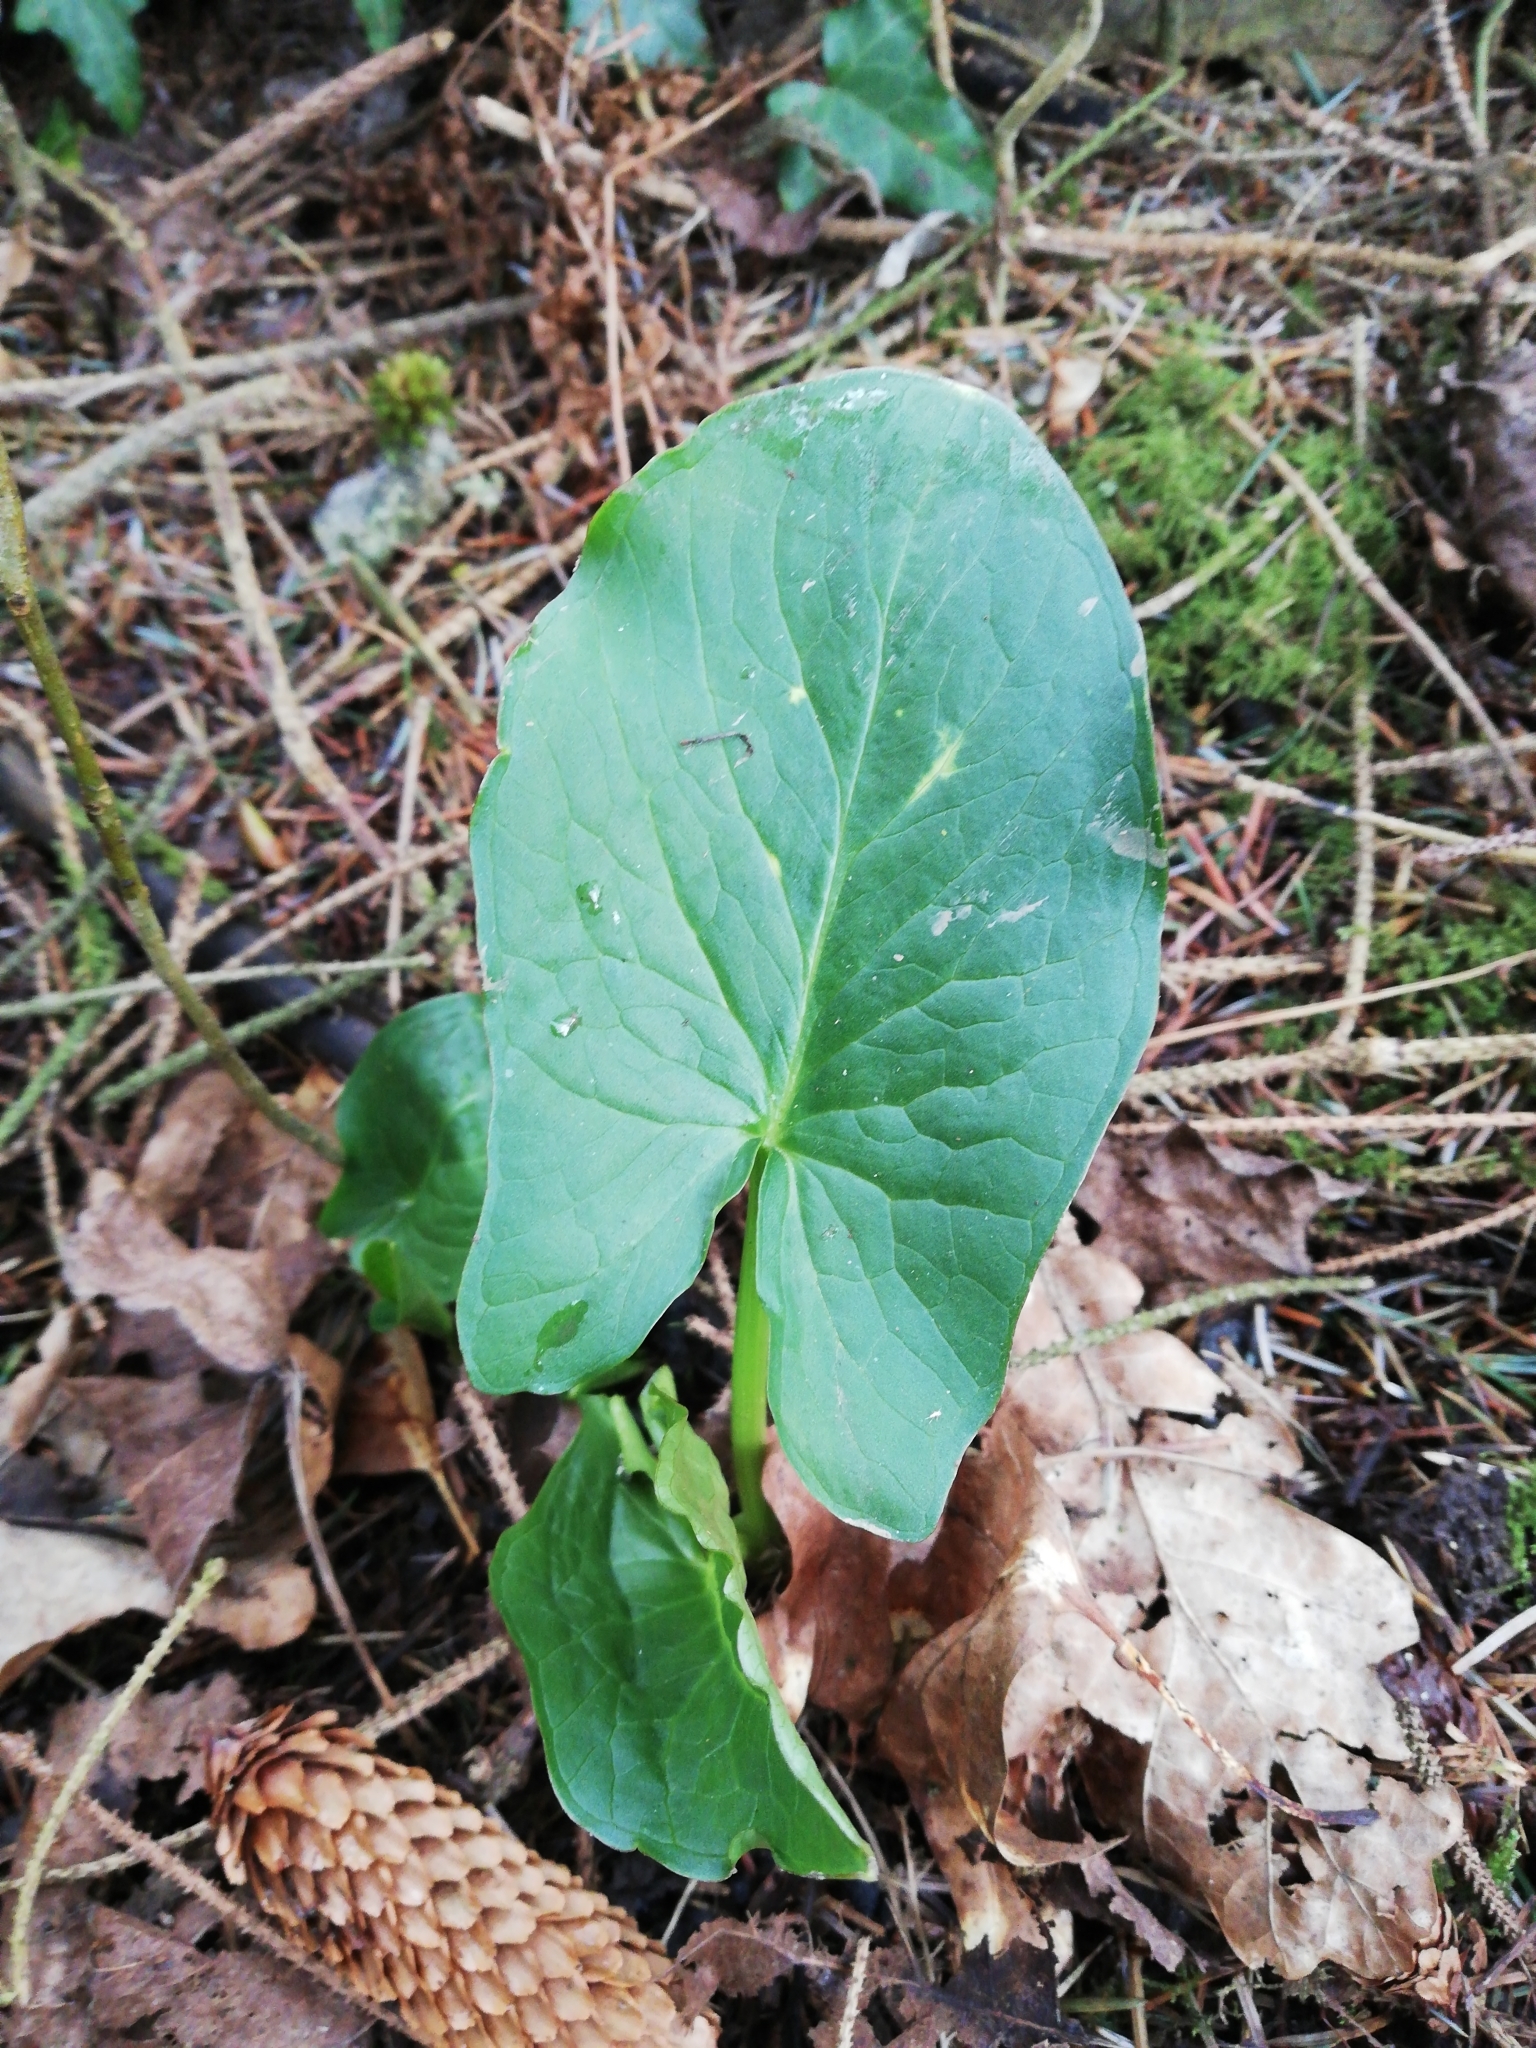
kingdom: Plantae
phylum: Tracheophyta
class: Liliopsida
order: Alismatales
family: Araceae
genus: Arum
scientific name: Arum maculatum
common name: Lords-and-ladies
